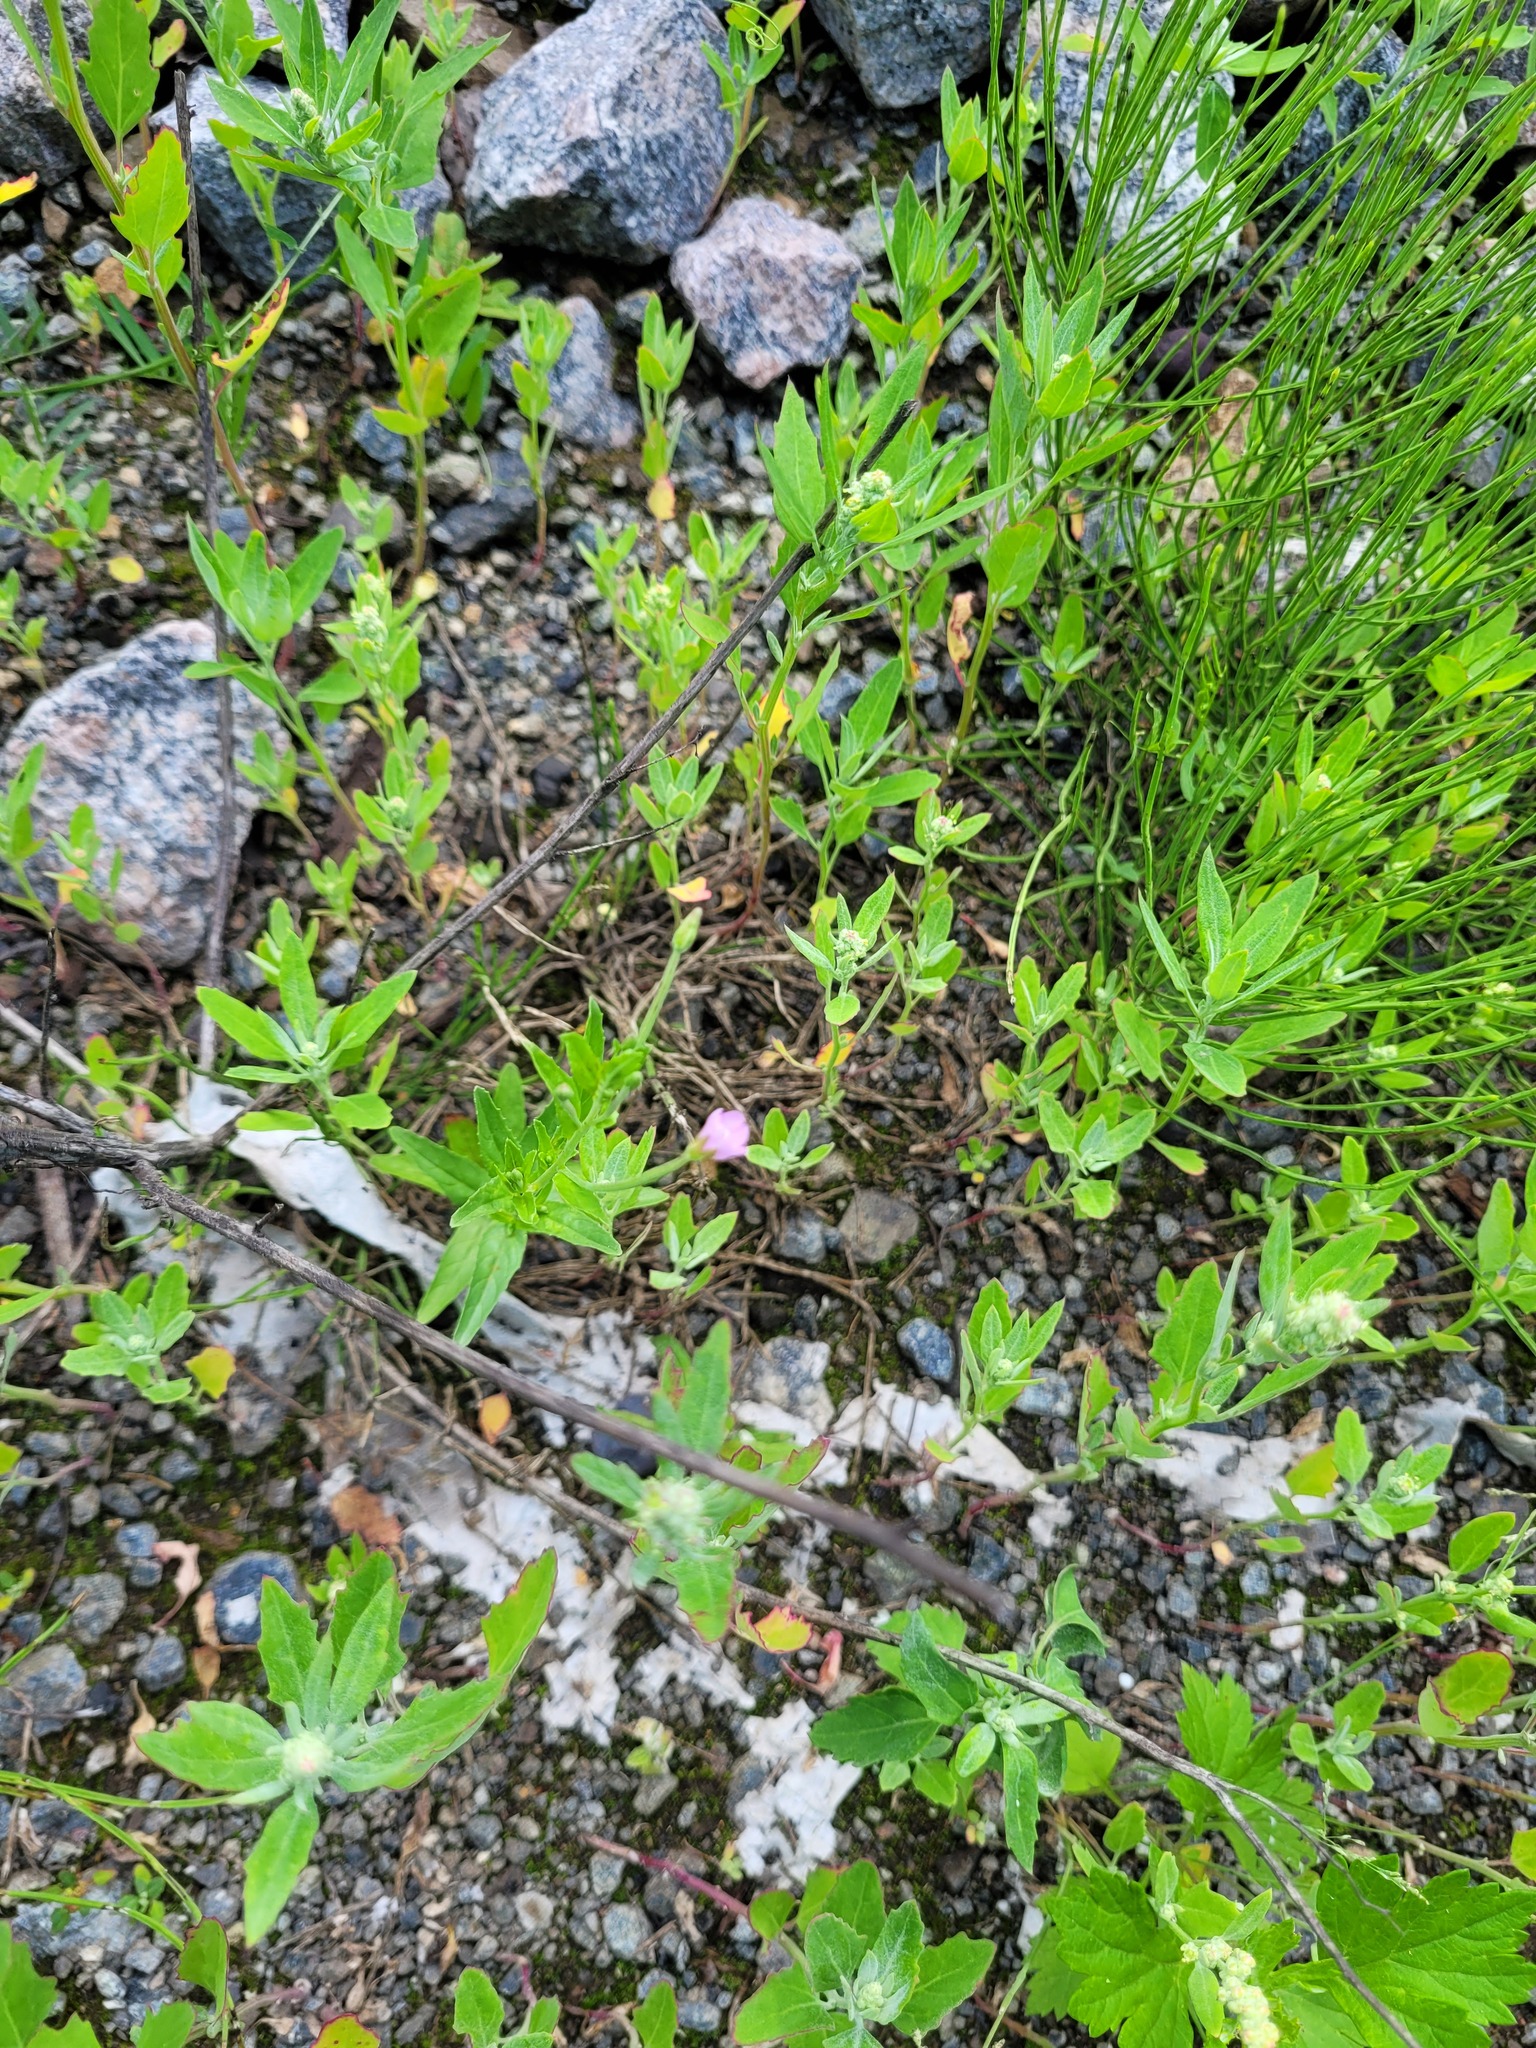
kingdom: Plantae
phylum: Tracheophyta
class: Magnoliopsida
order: Myrtales
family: Onagraceae
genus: Epilobium
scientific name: Epilobium lamyi
